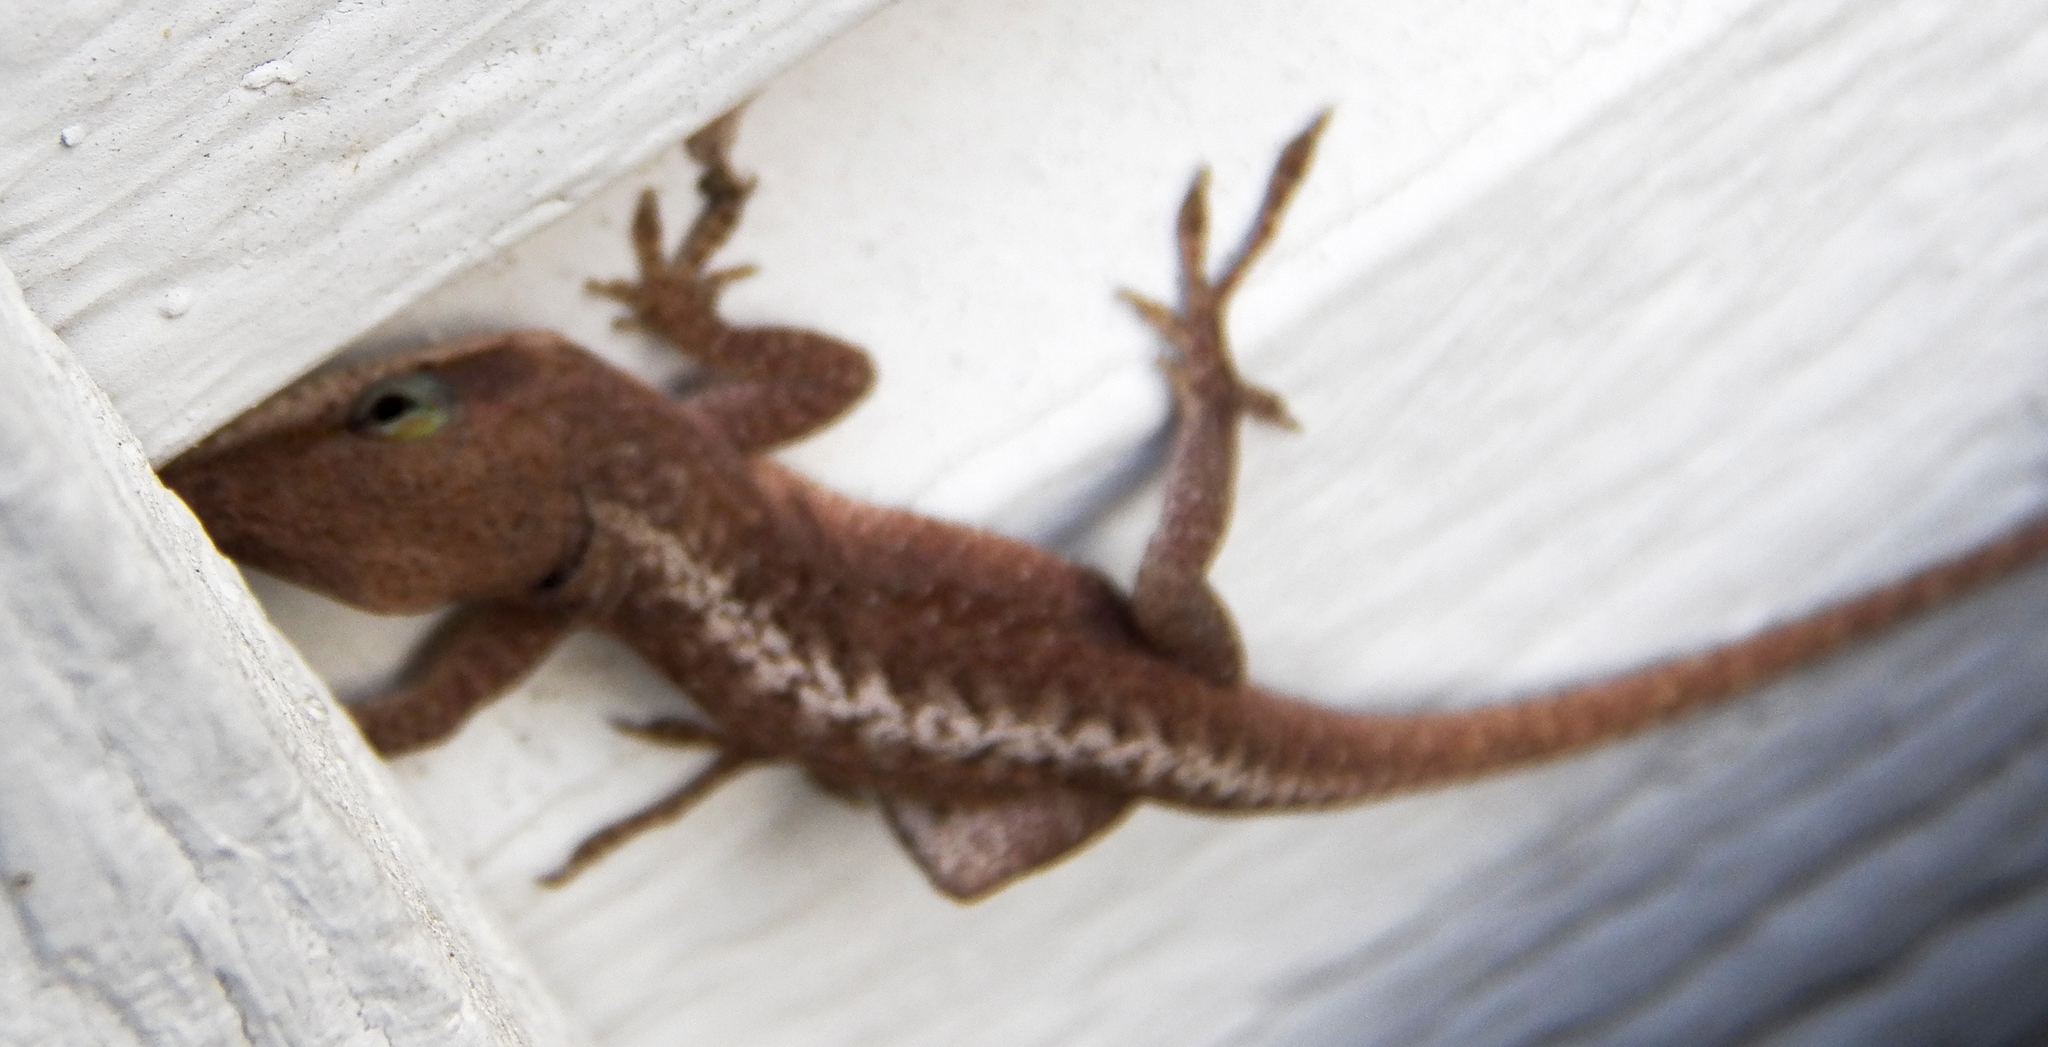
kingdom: Animalia
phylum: Chordata
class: Squamata
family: Dactyloidae
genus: Anolis
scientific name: Anolis carolinensis
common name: Green anole
